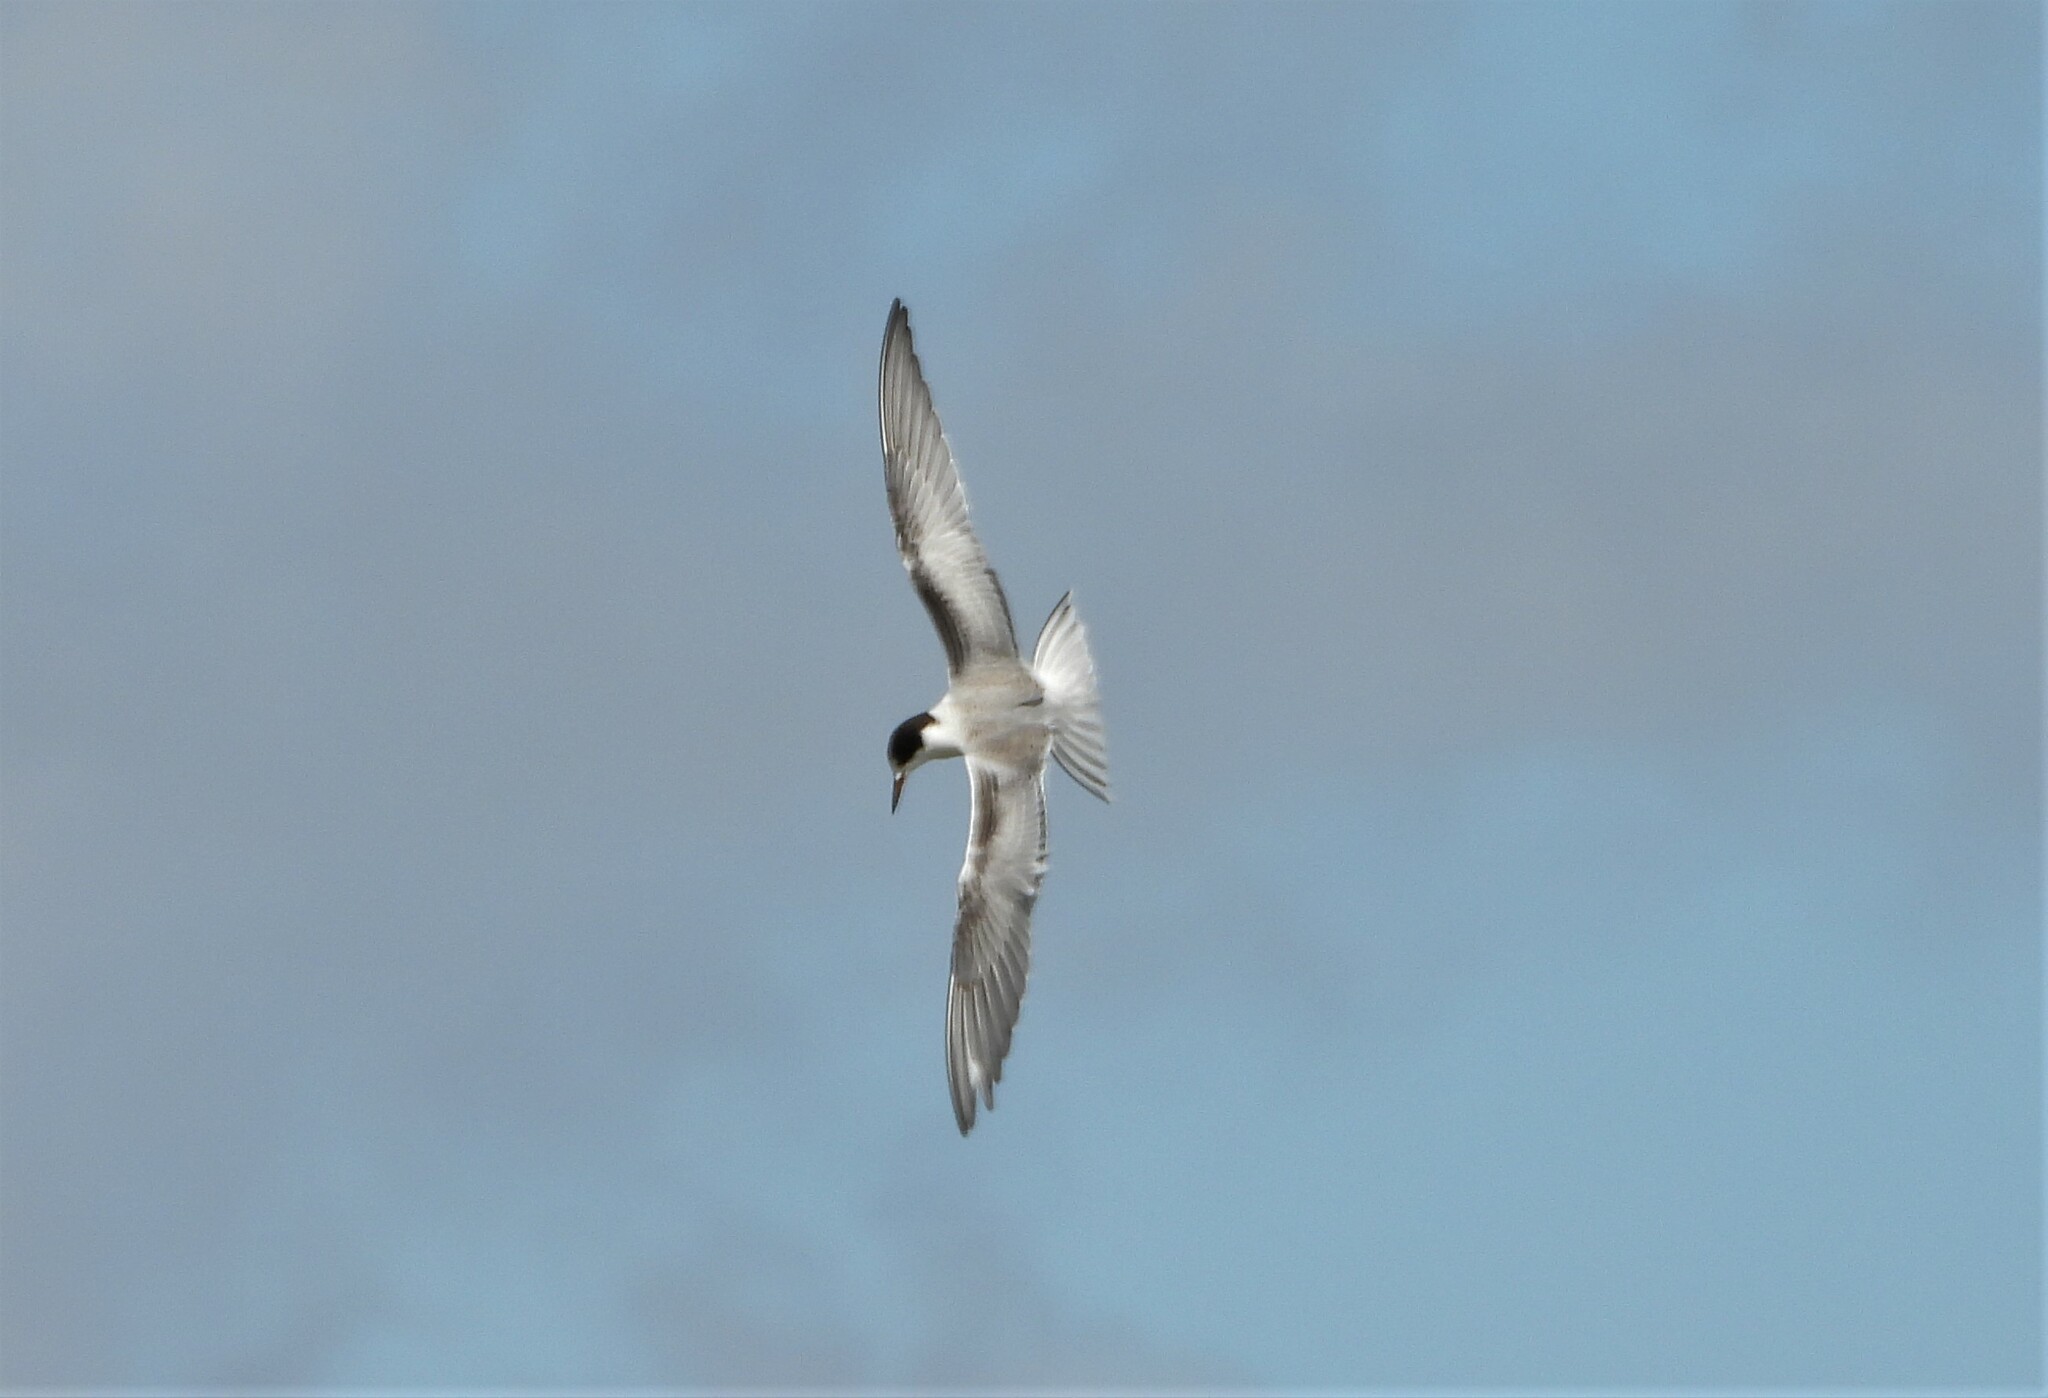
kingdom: Animalia
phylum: Chordata
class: Aves
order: Charadriiformes
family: Laridae
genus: Sterna
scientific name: Sterna hirundo
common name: Common tern
